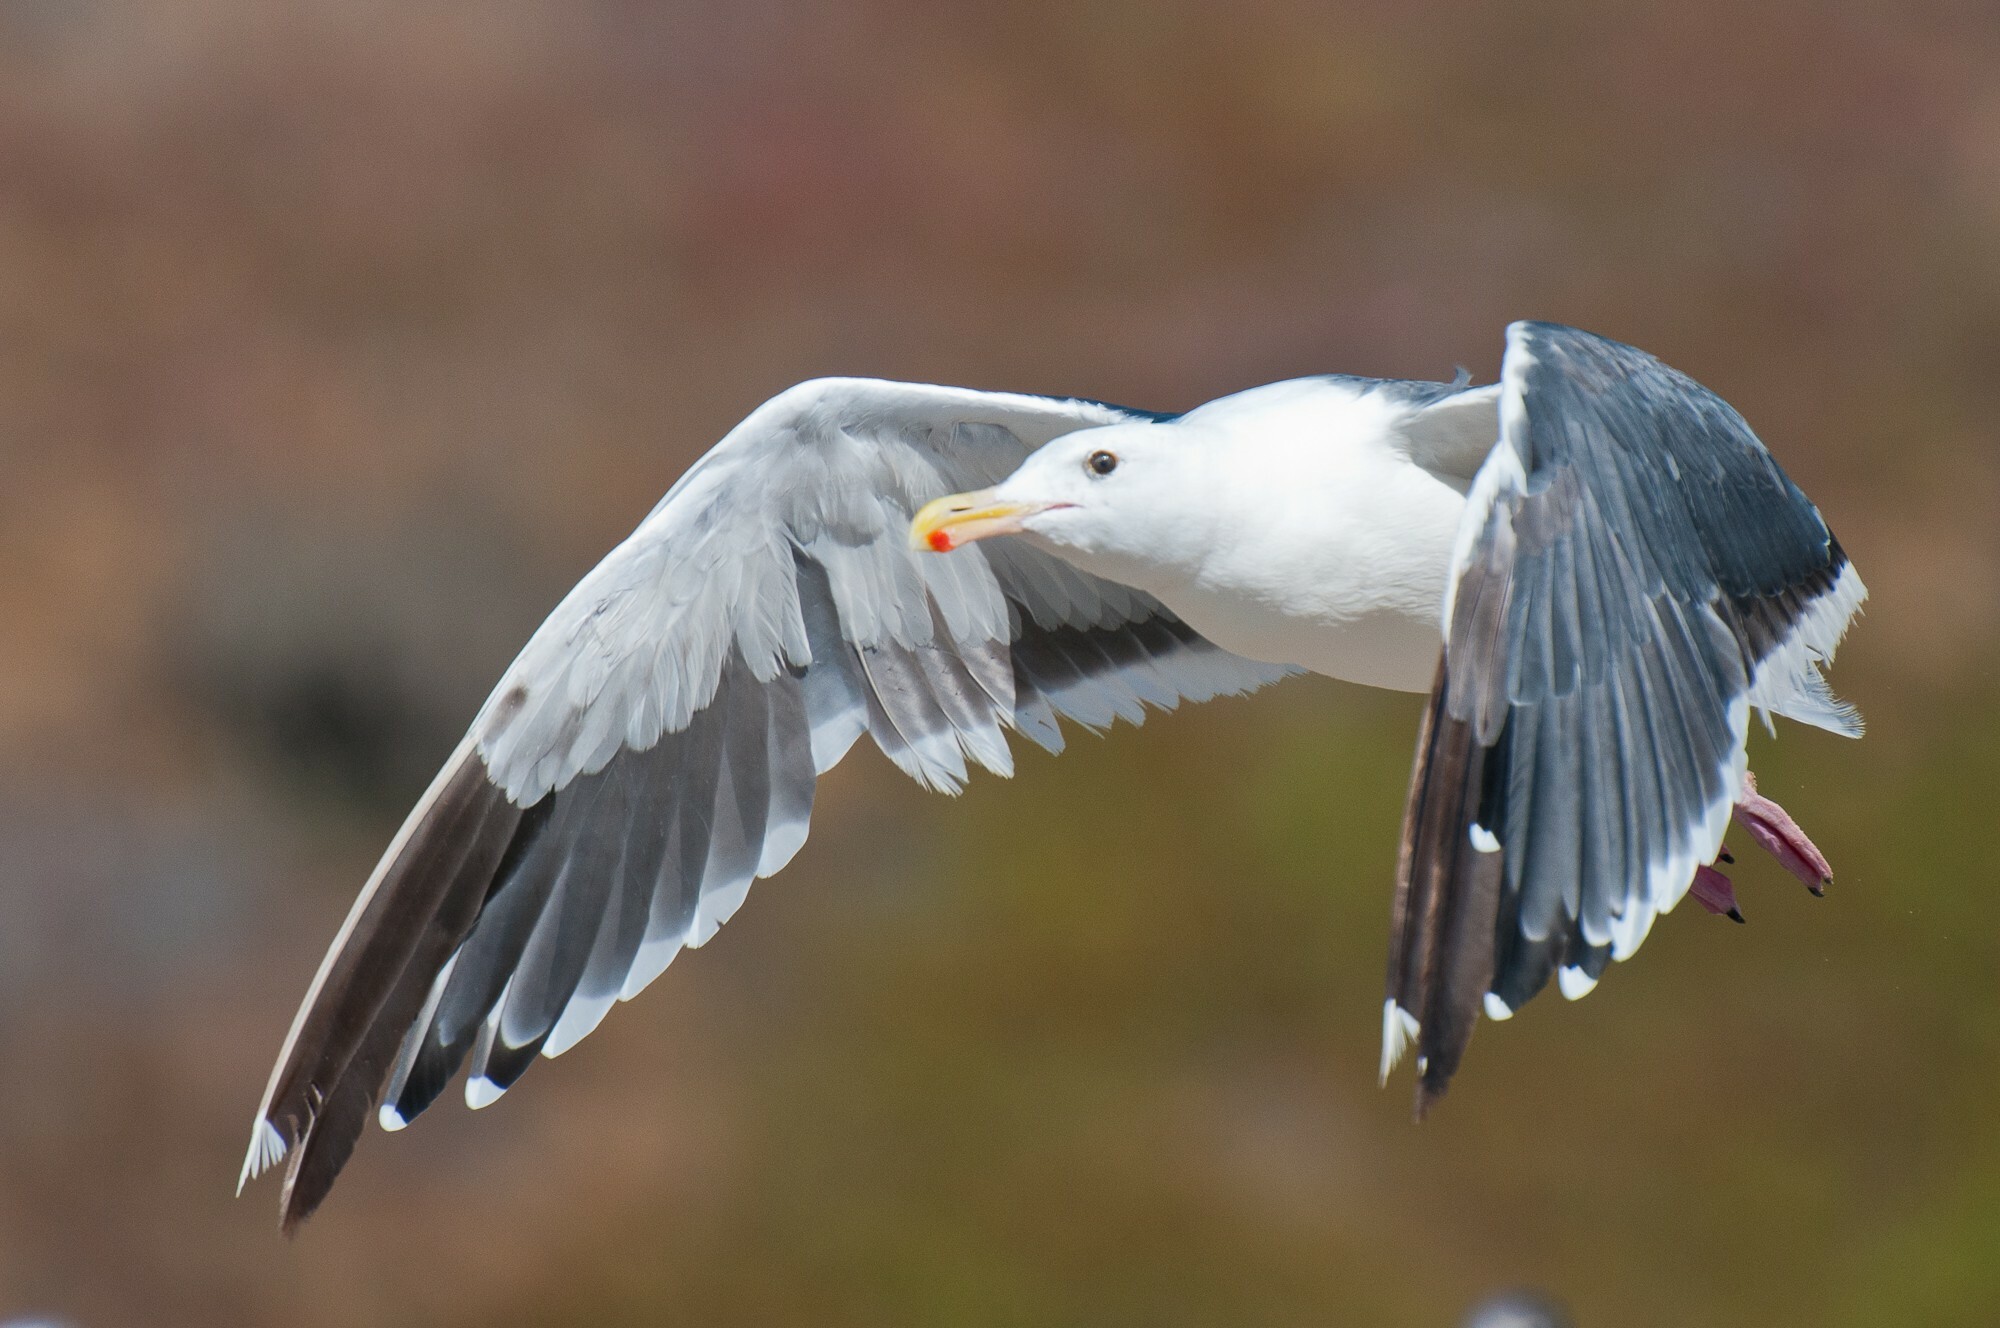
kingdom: Animalia
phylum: Chordata
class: Aves
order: Charadriiformes
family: Laridae
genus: Larus
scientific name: Larus occidentalis
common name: Western gull
